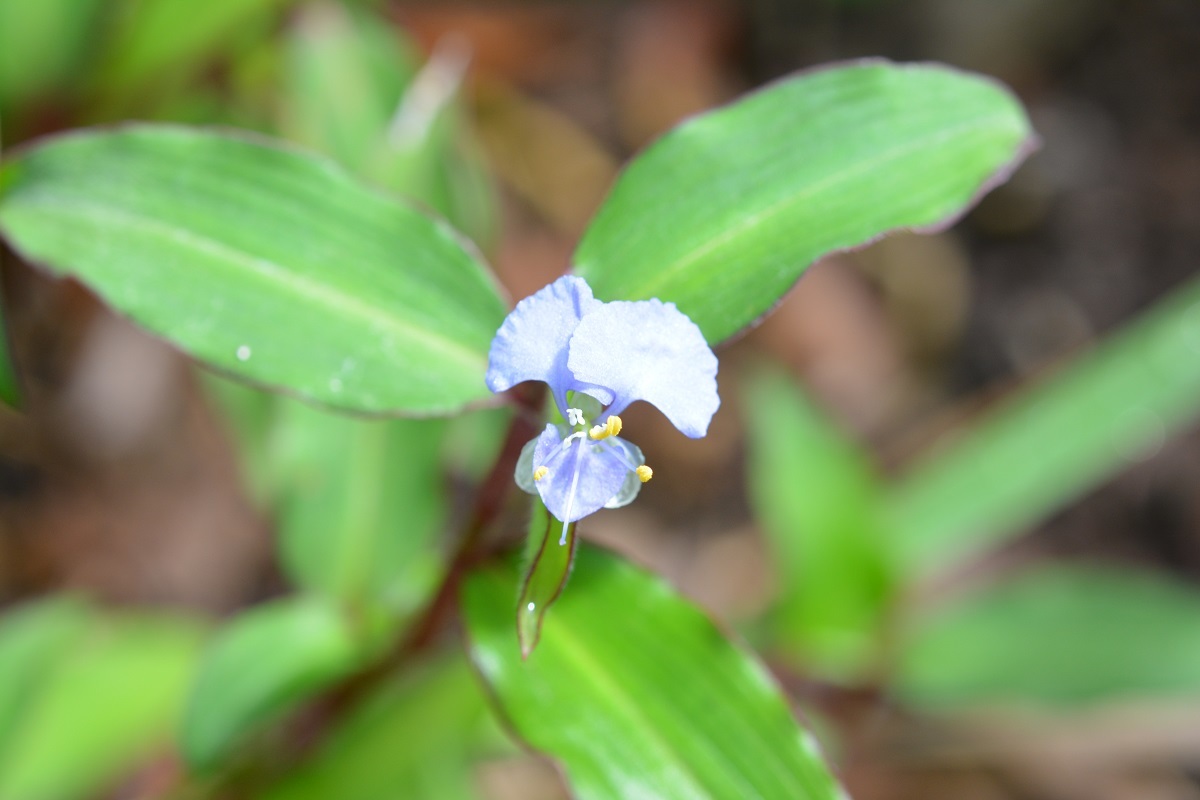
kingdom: Plantae
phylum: Tracheophyta
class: Liliopsida
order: Commelinales
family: Commelinaceae
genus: Commelina
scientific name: Commelina diffusa
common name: Climbing dayflower
